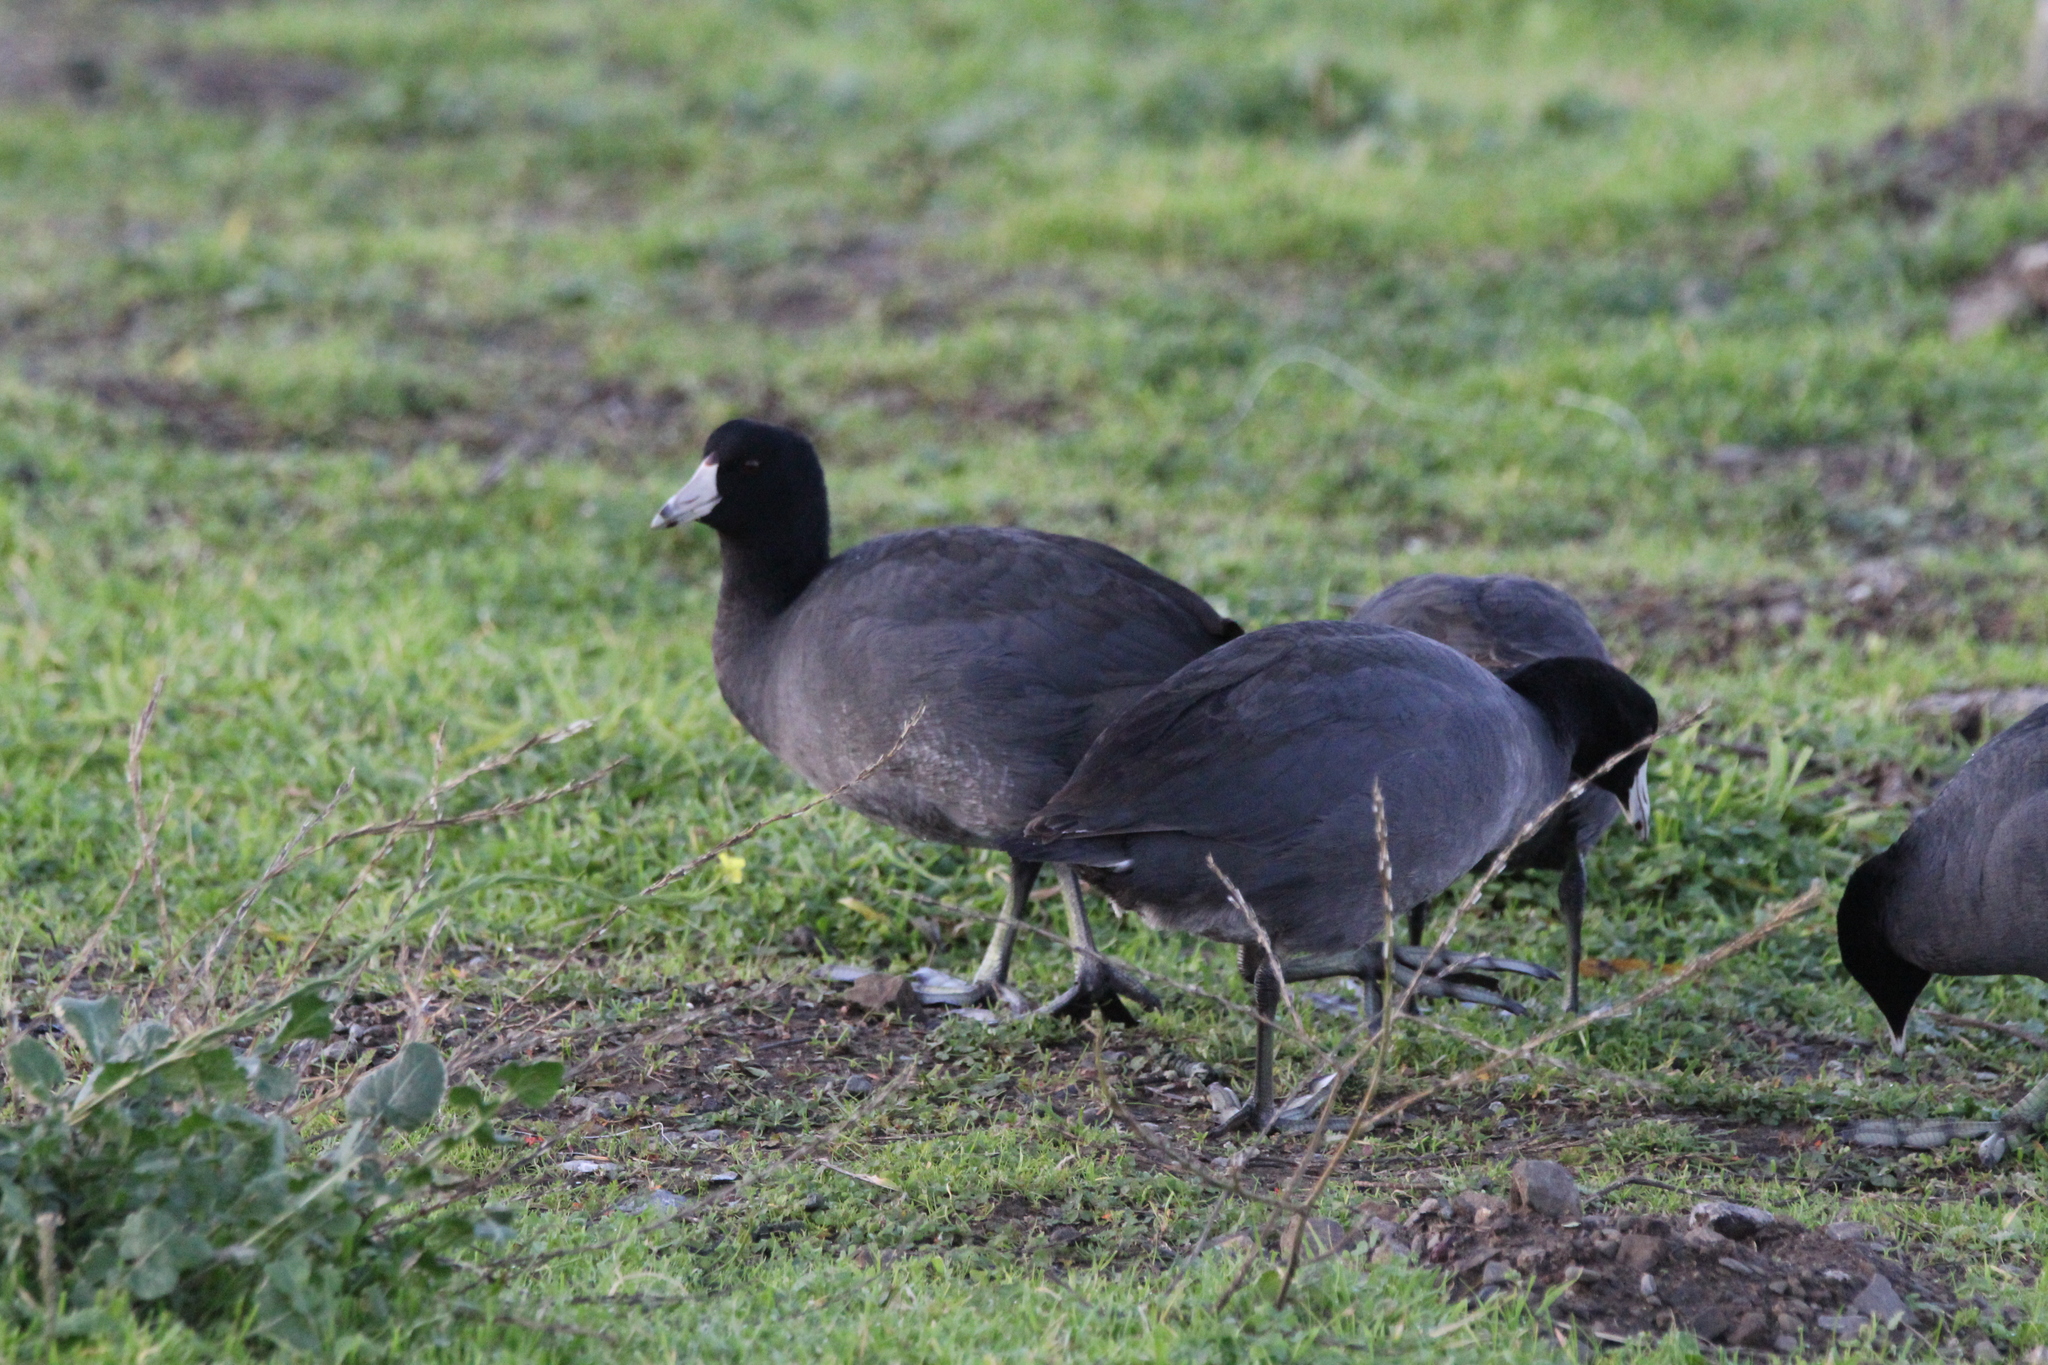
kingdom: Animalia
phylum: Chordata
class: Aves
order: Gruiformes
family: Rallidae
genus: Fulica
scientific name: Fulica americana
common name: American coot
